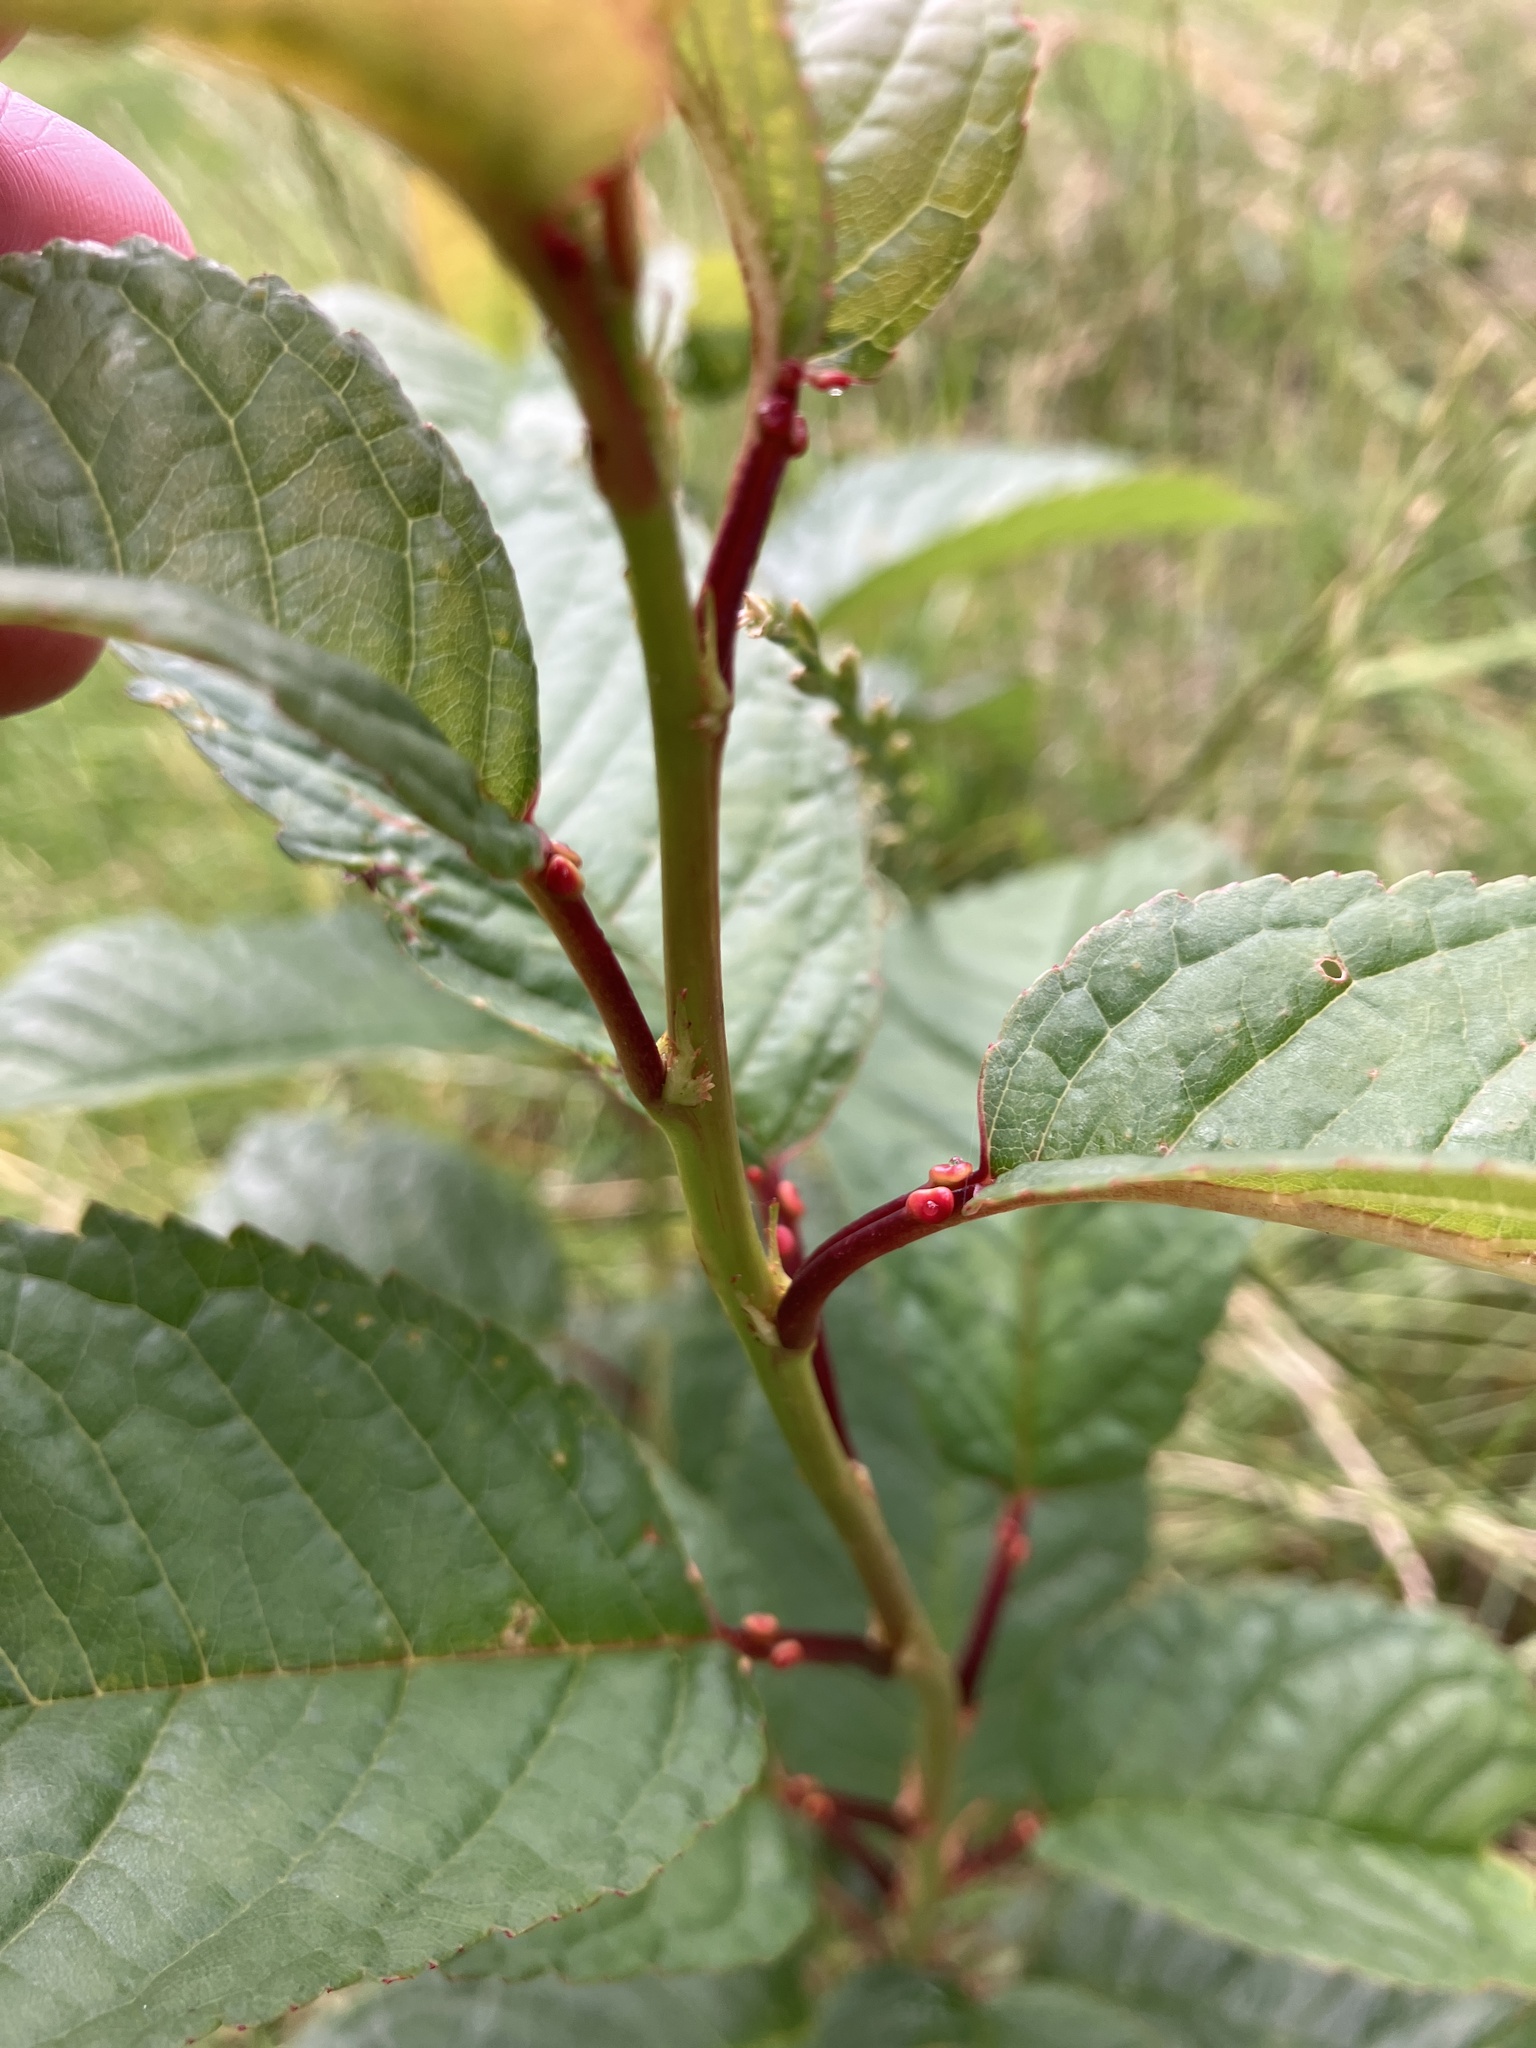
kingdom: Plantae
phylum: Tracheophyta
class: Magnoliopsida
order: Rosales
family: Rosaceae
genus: Prunus
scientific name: Prunus avium
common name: Sweet cherry
